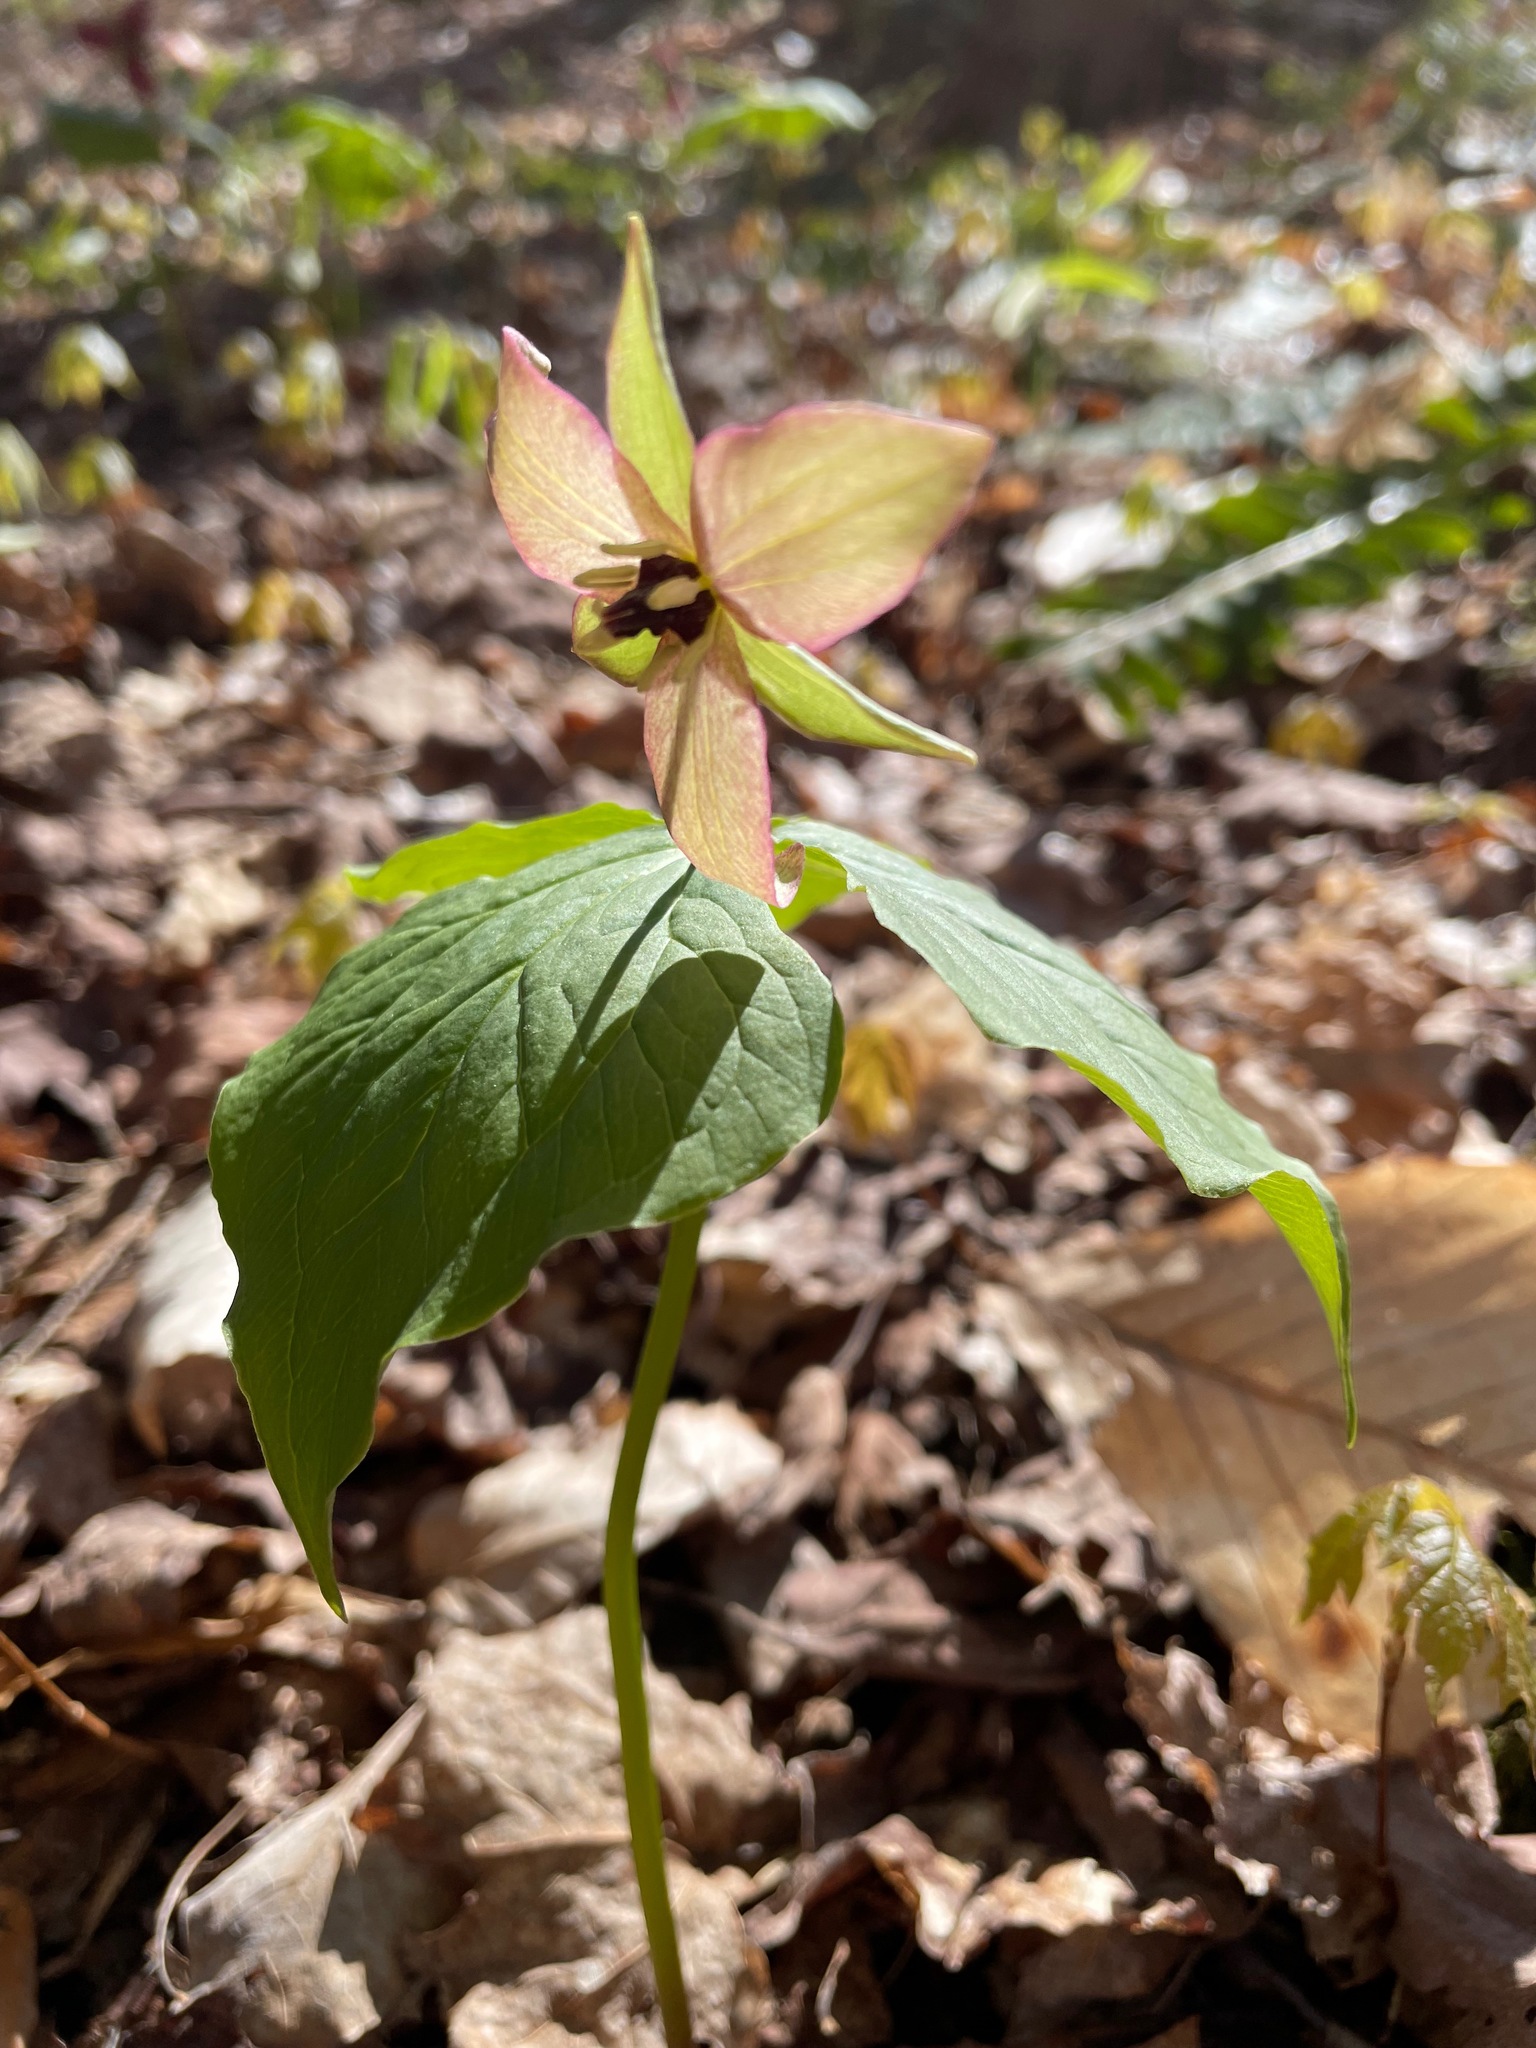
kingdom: Plantae
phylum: Tracheophyta
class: Liliopsida
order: Liliales
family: Melanthiaceae
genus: Trillium
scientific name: Trillium erectum
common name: Purple trillium
